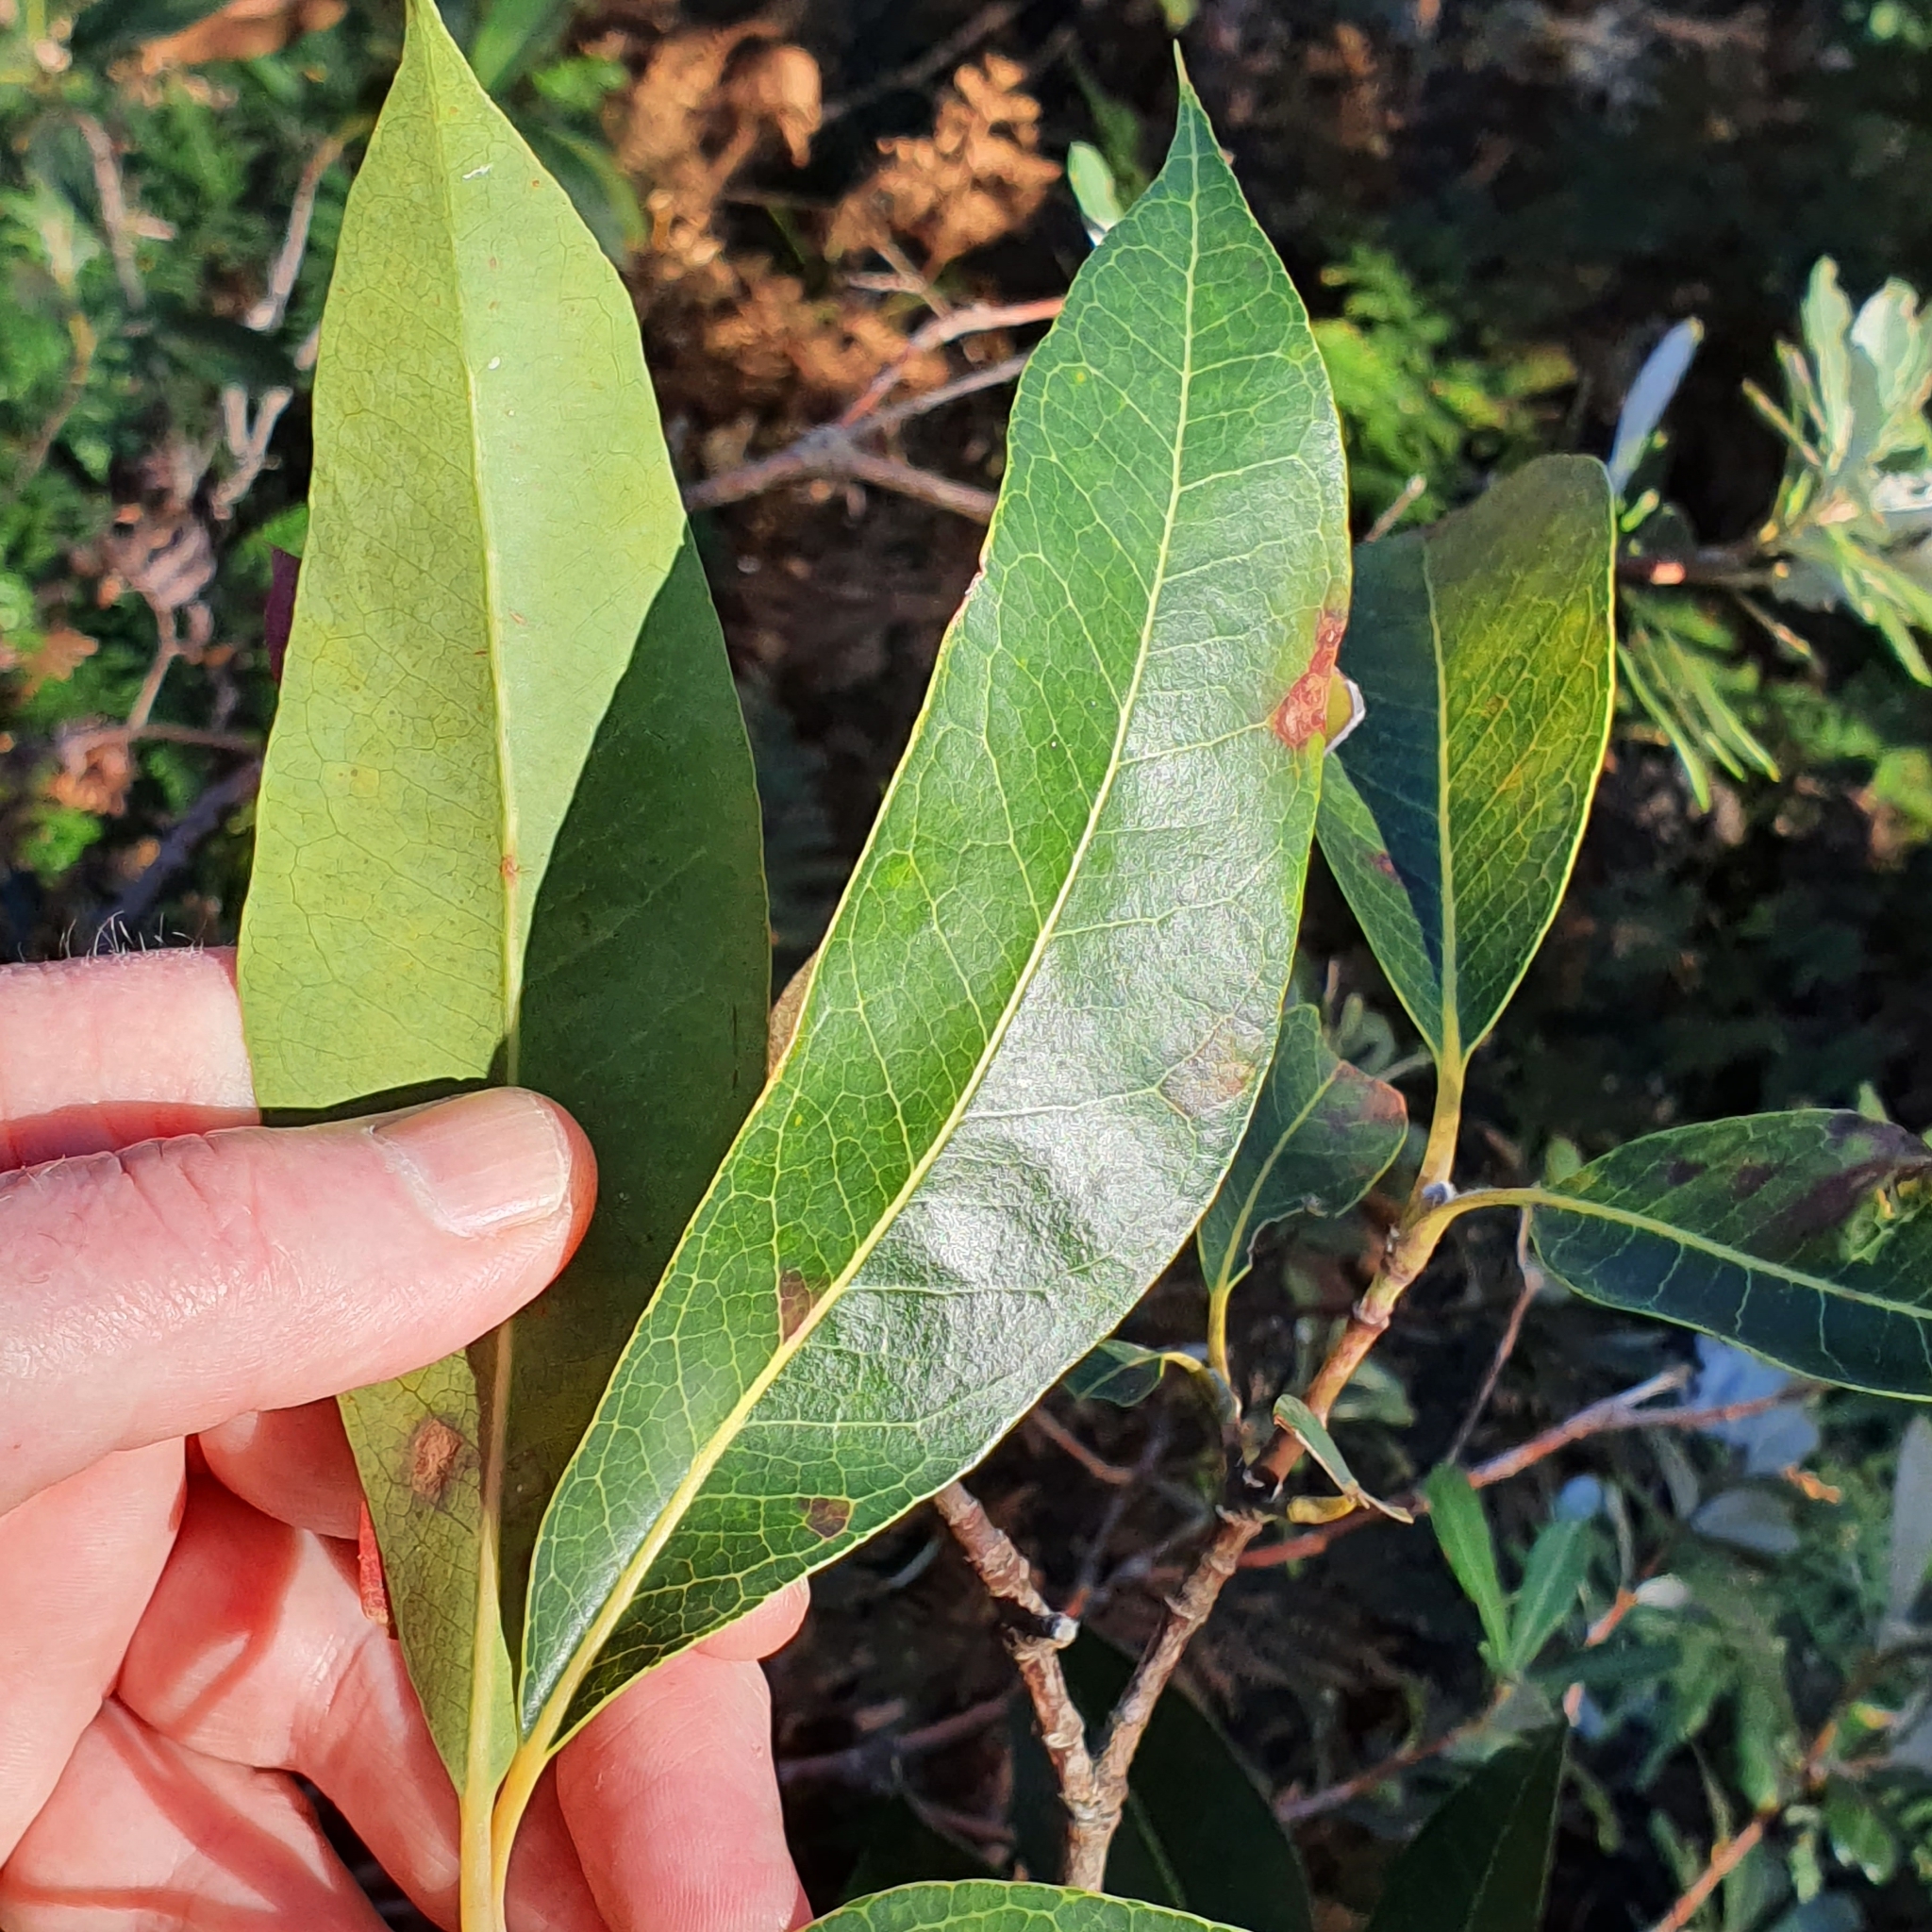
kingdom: Plantae
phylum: Tracheophyta
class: Magnoliopsida
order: Proteales
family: Proteaceae
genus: Xylomelum
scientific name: Xylomelum pyriforme
